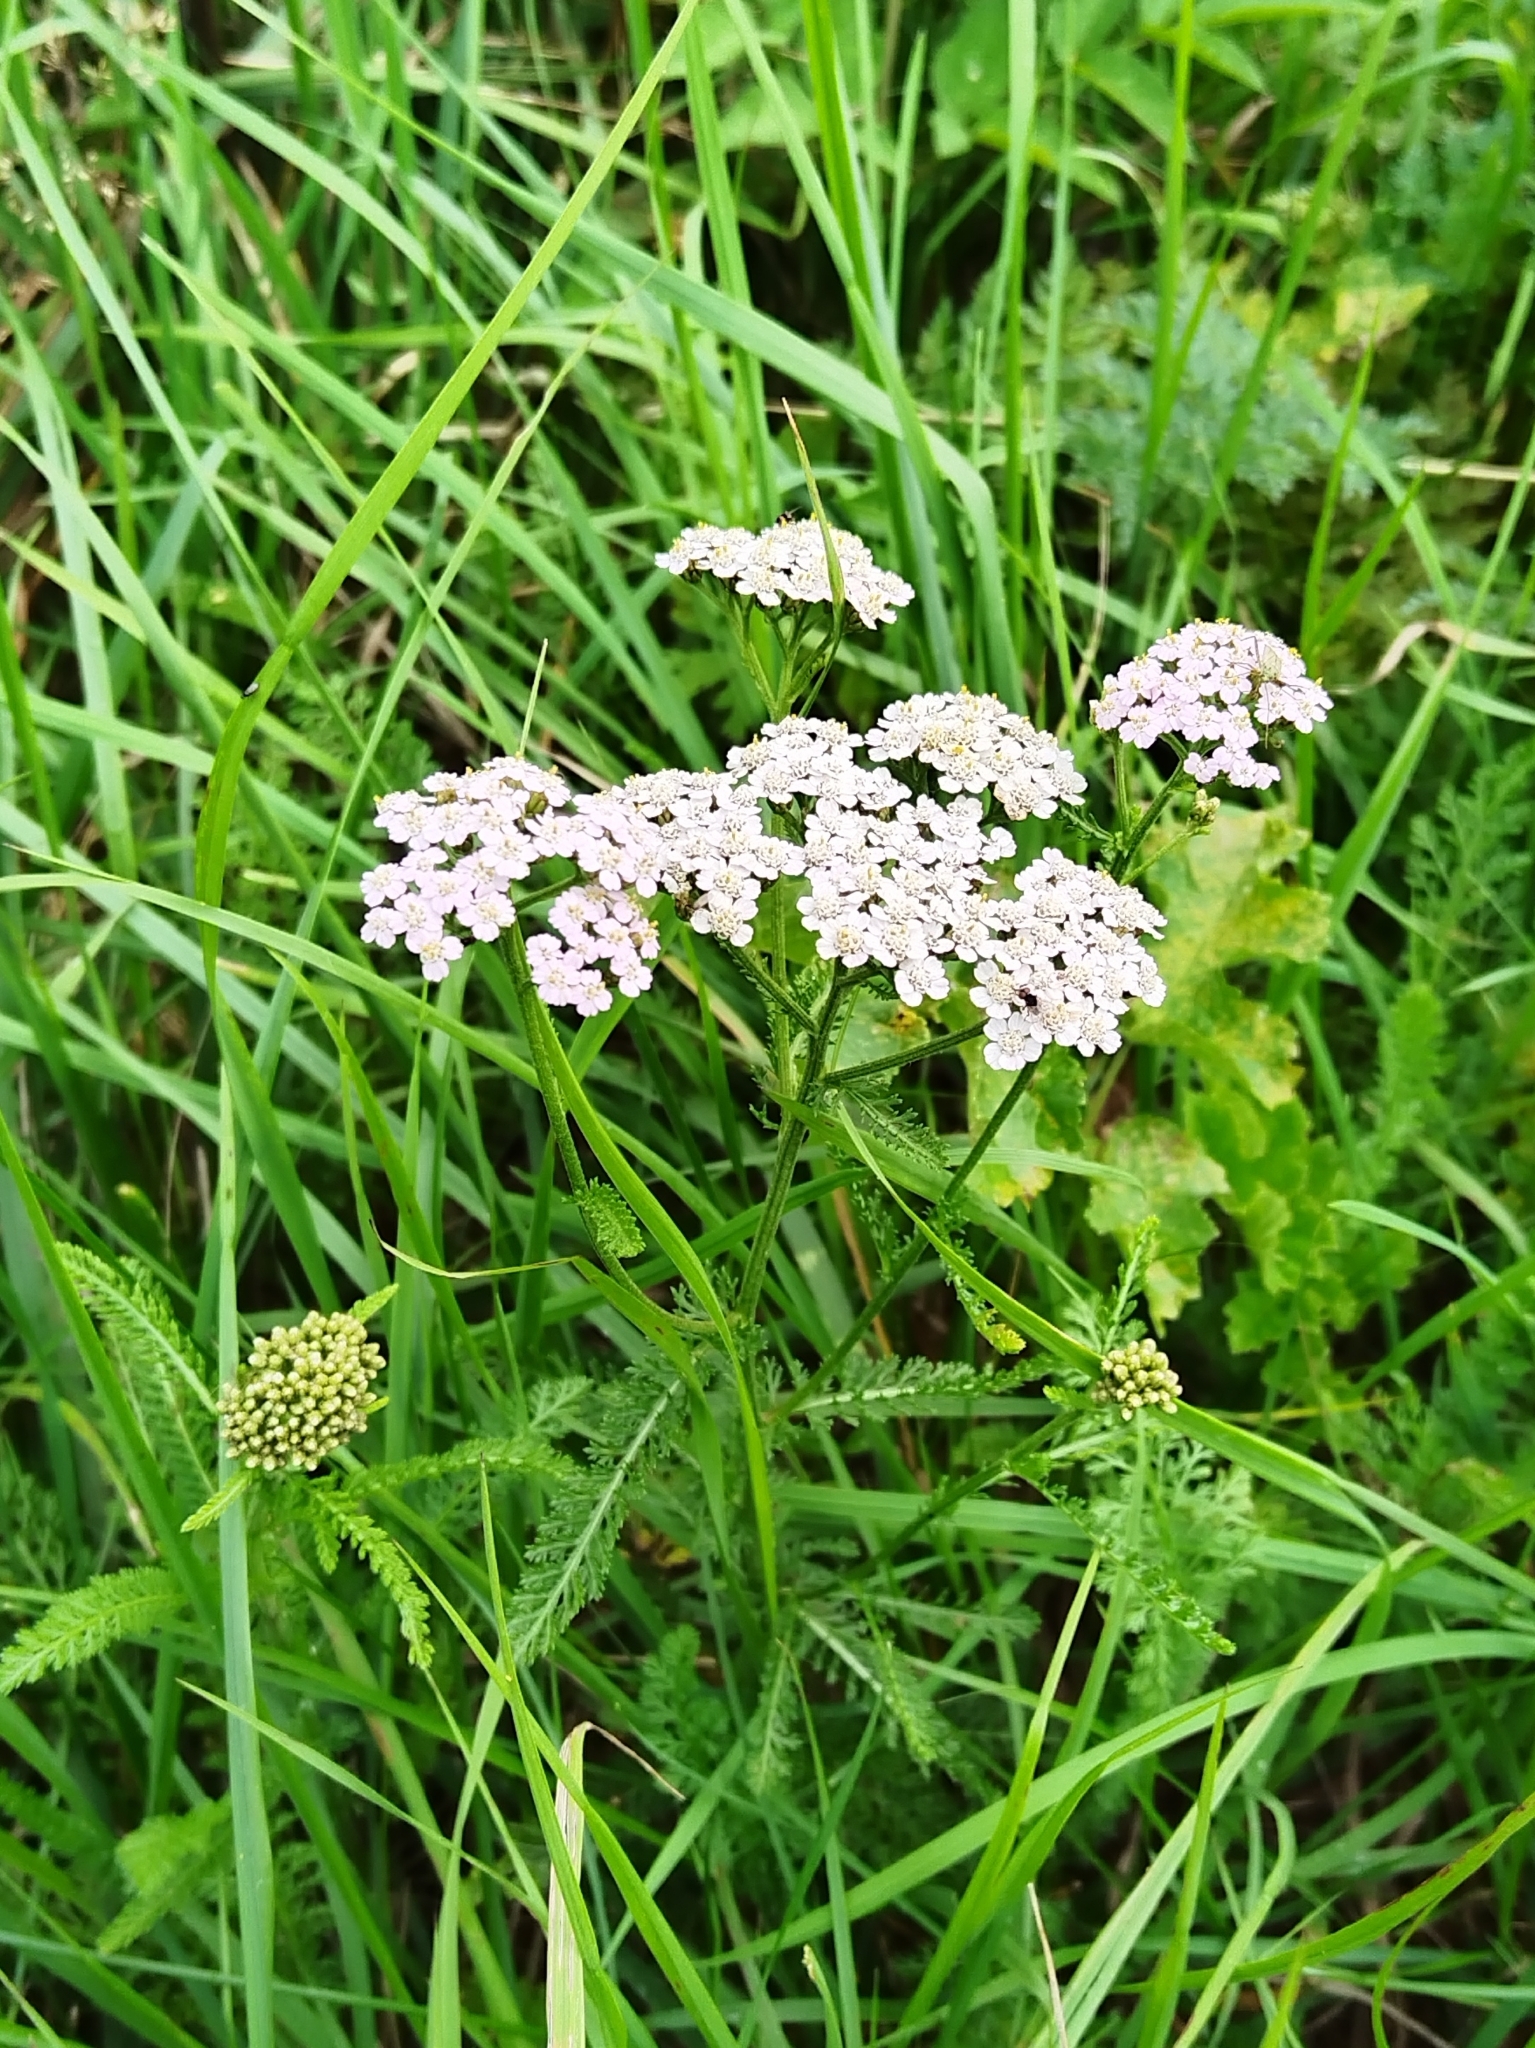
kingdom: Plantae
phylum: Tracheophyta
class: Magnoliopsida
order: Asterales
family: Asteraceae
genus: Achillea
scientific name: Achillea millefolium
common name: Yarrow
